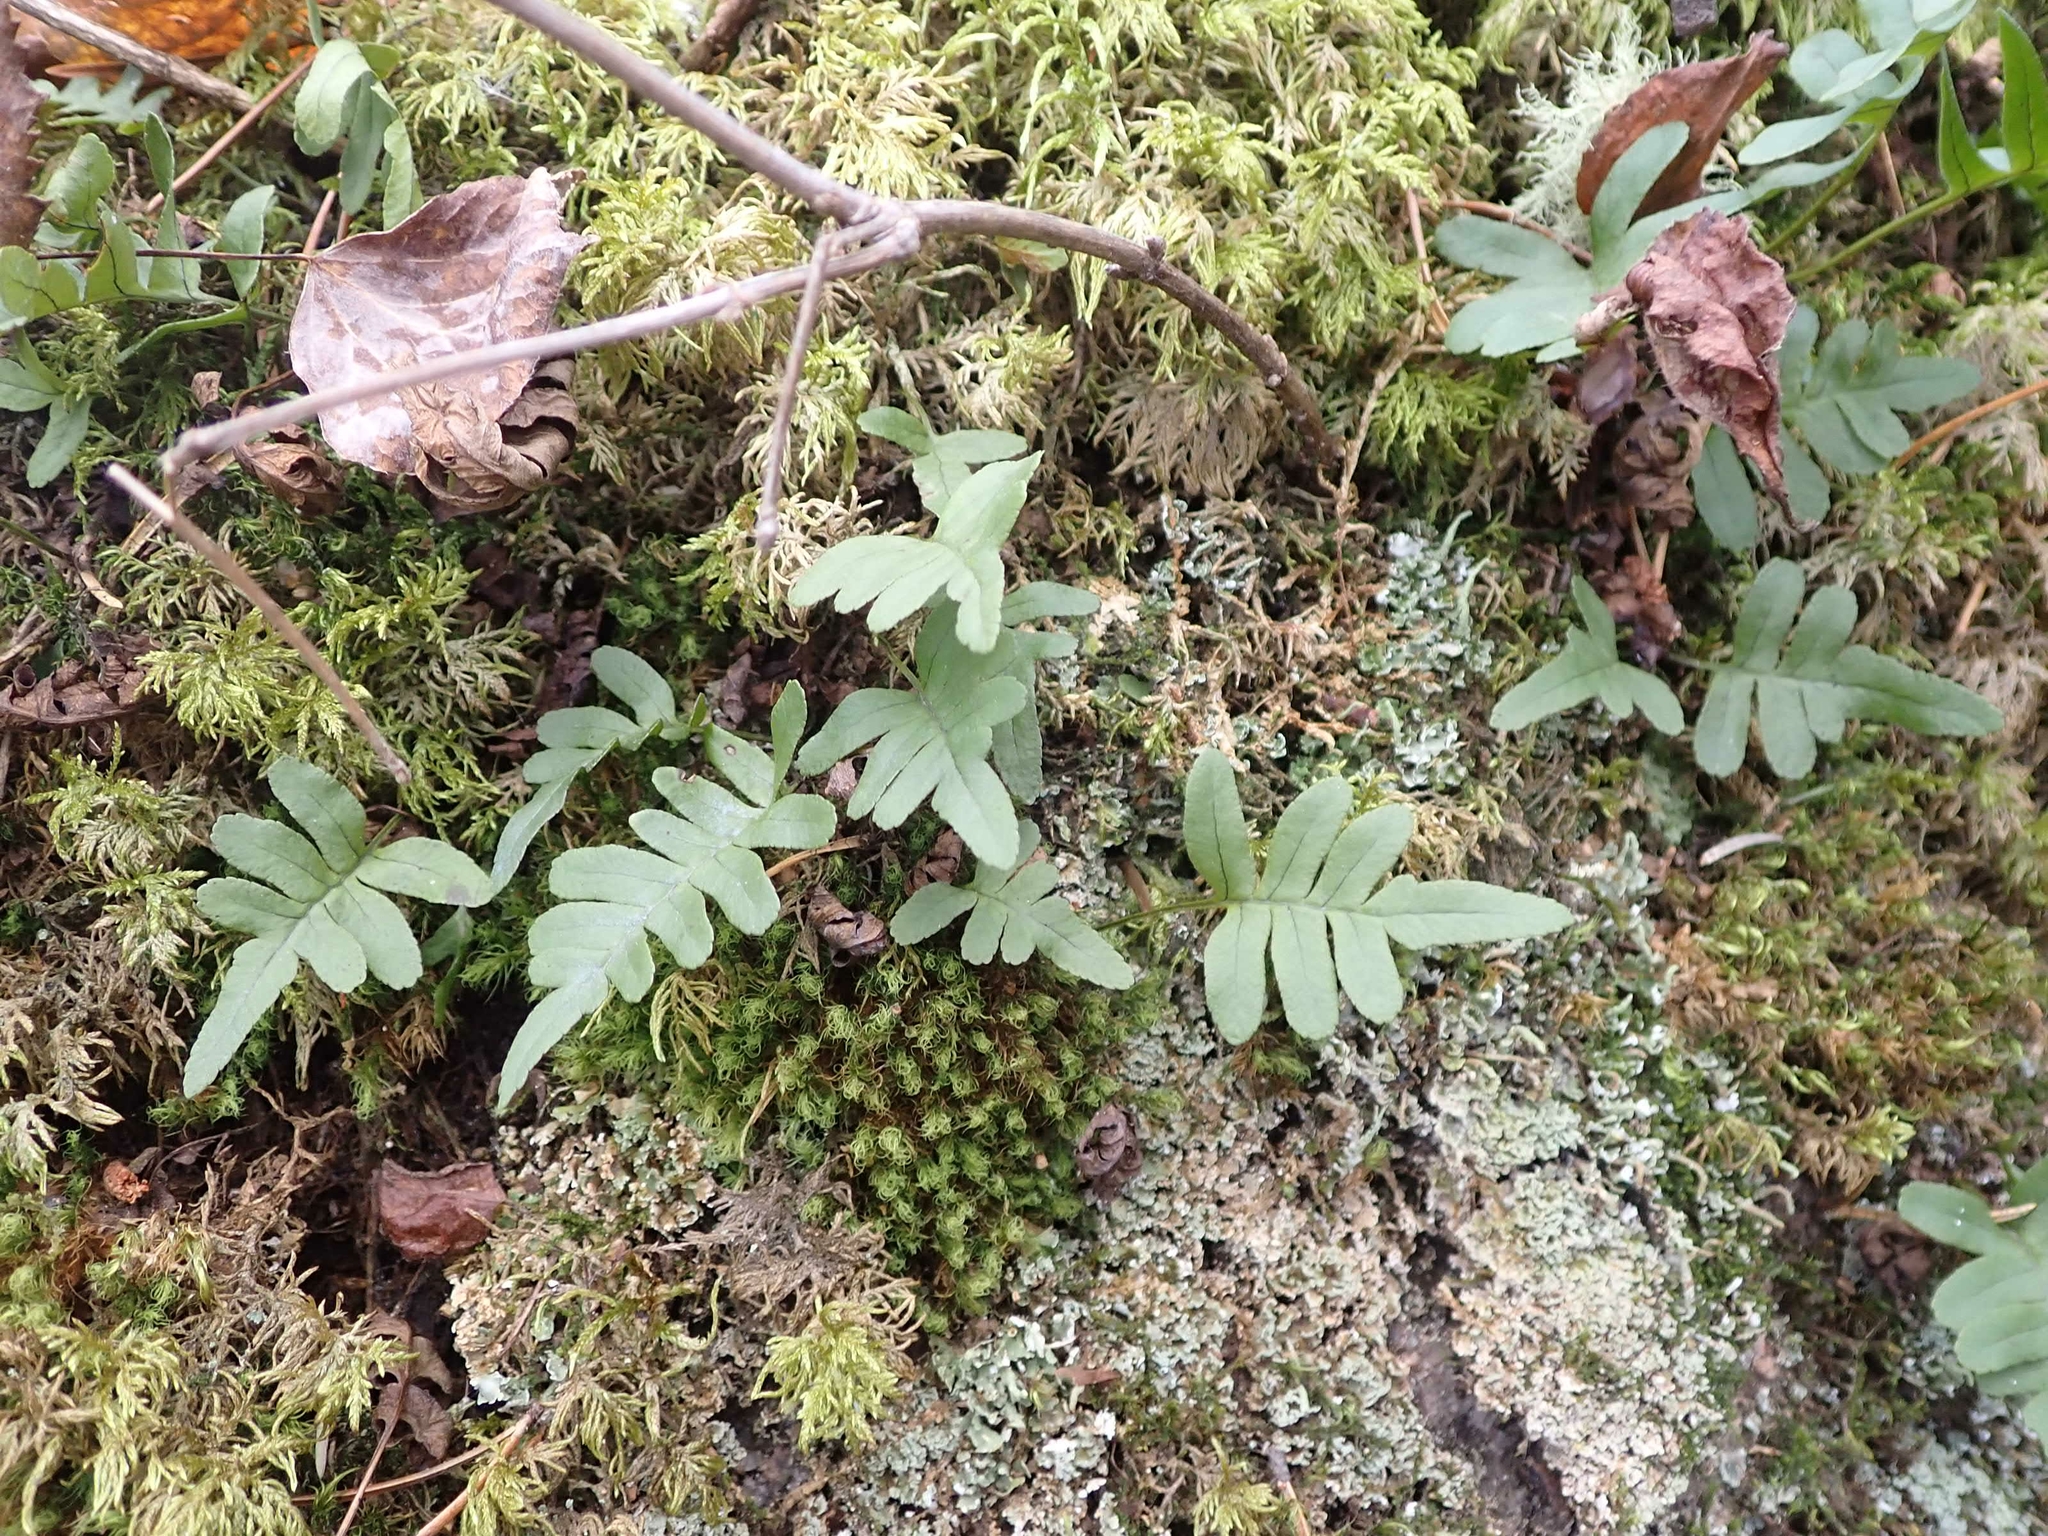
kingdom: Plantae
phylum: Tracheophyta
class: Polypodiopsida
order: Polypodiales
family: Polypodiaceae
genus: Polypodium
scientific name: Polypodium virginianum
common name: American wall fern
